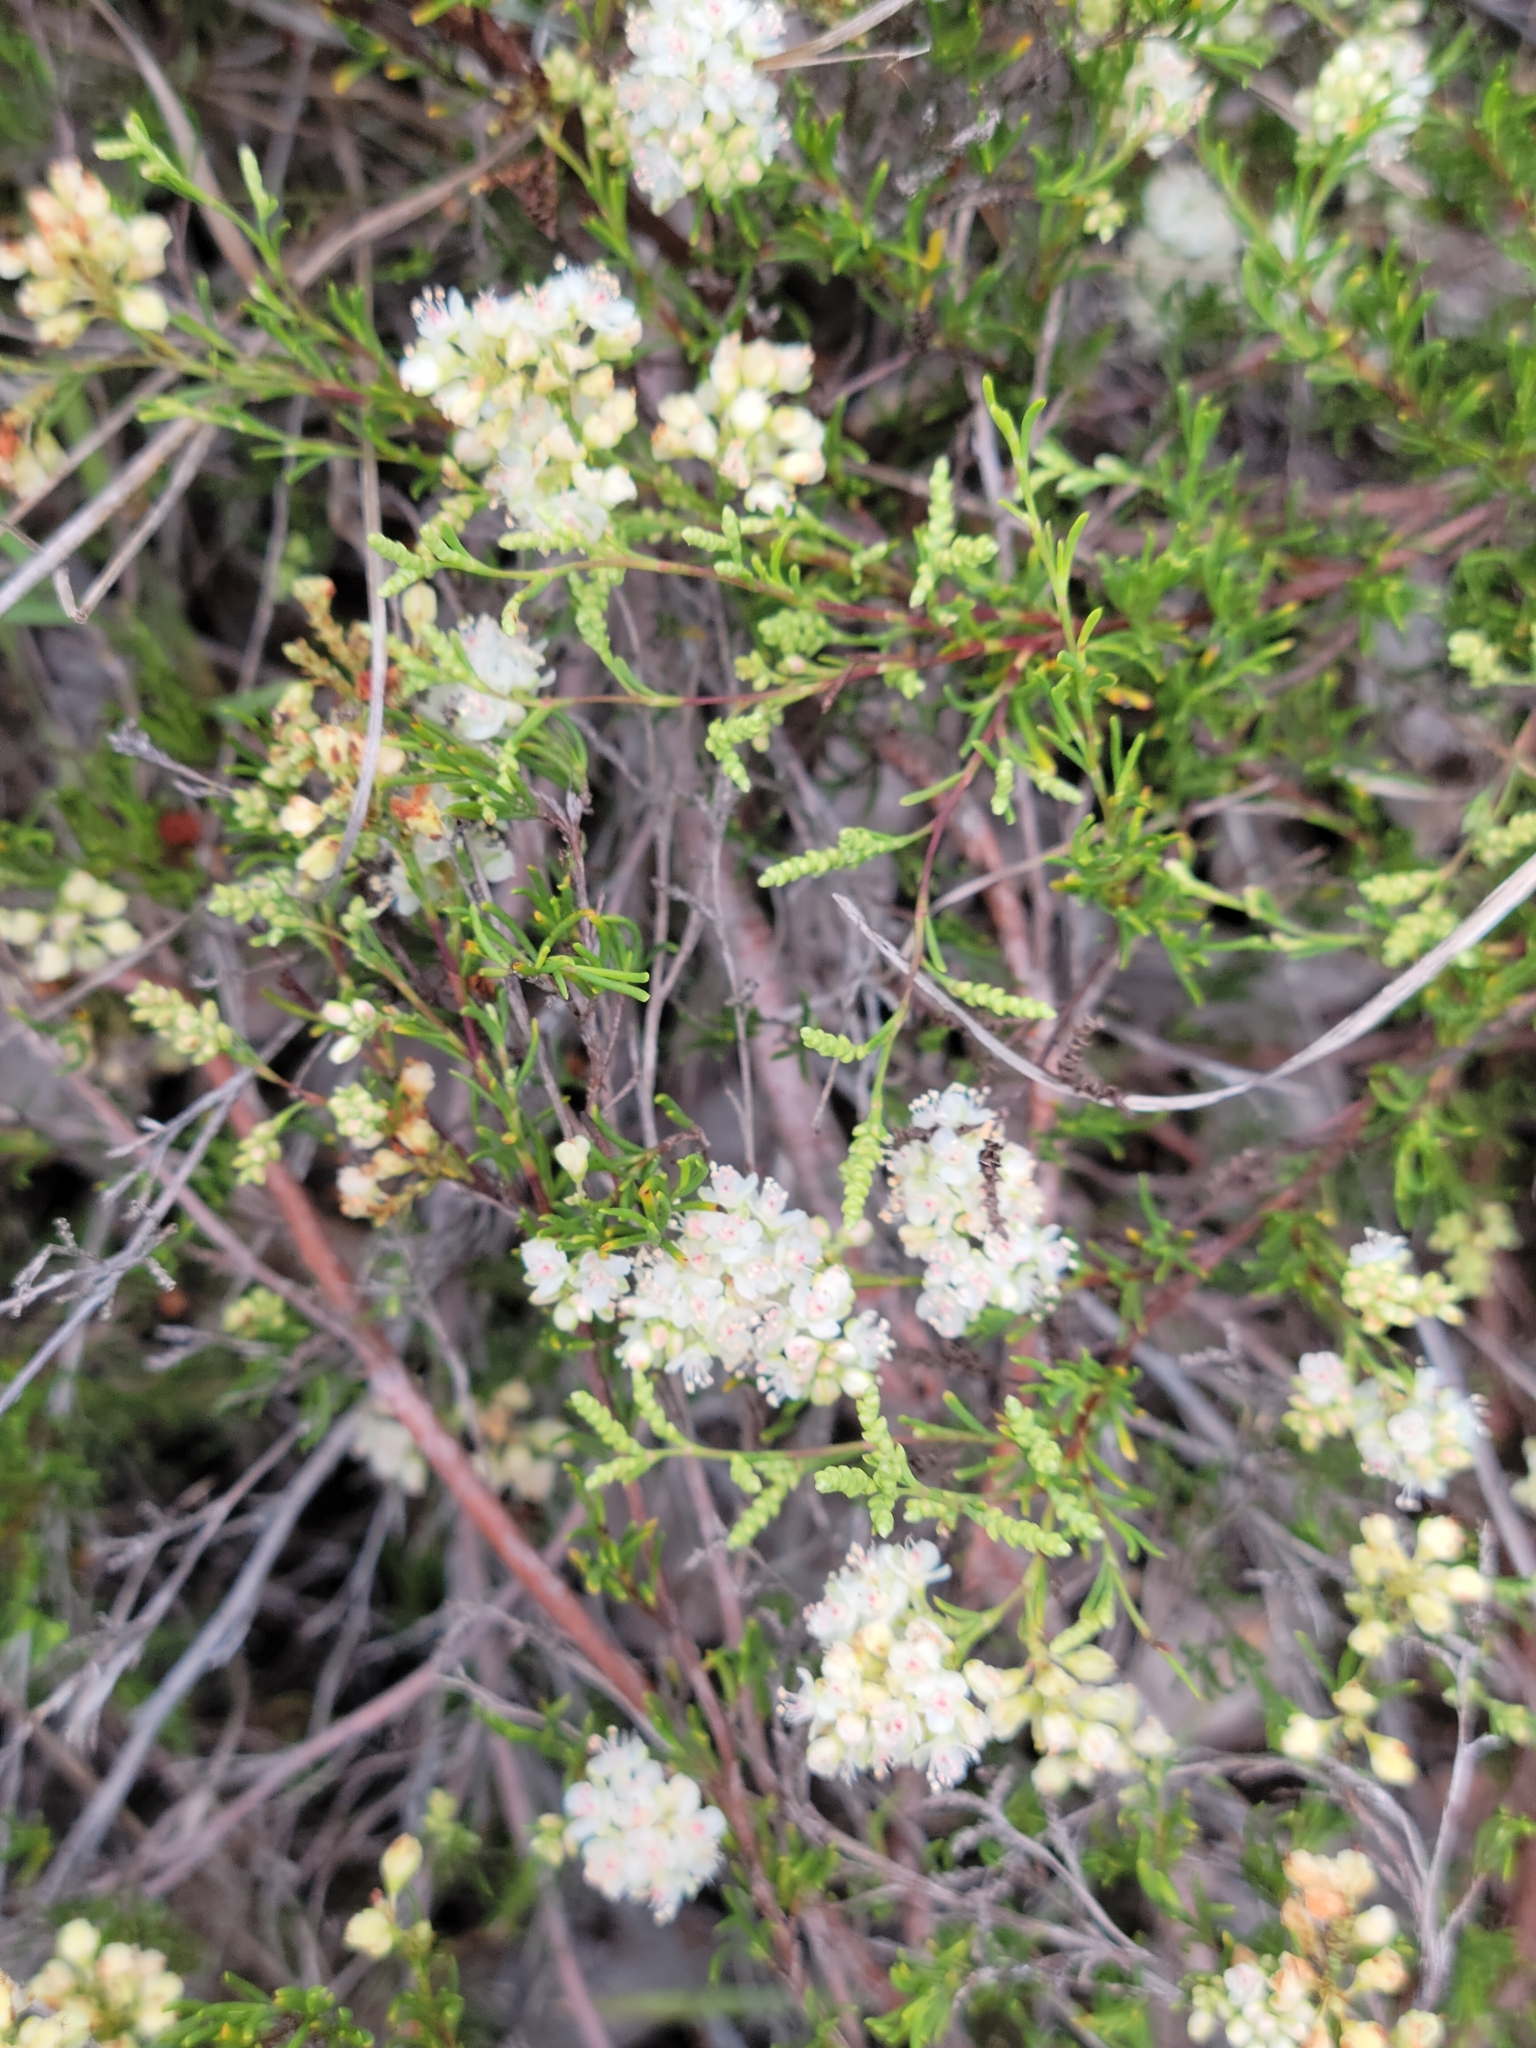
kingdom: Plantae
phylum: Tracheophyta
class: Magnoliopsida
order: Caryophyllales
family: Polygonaceae
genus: Polygonella
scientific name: Polygonella myriophylla
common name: Sandlace
